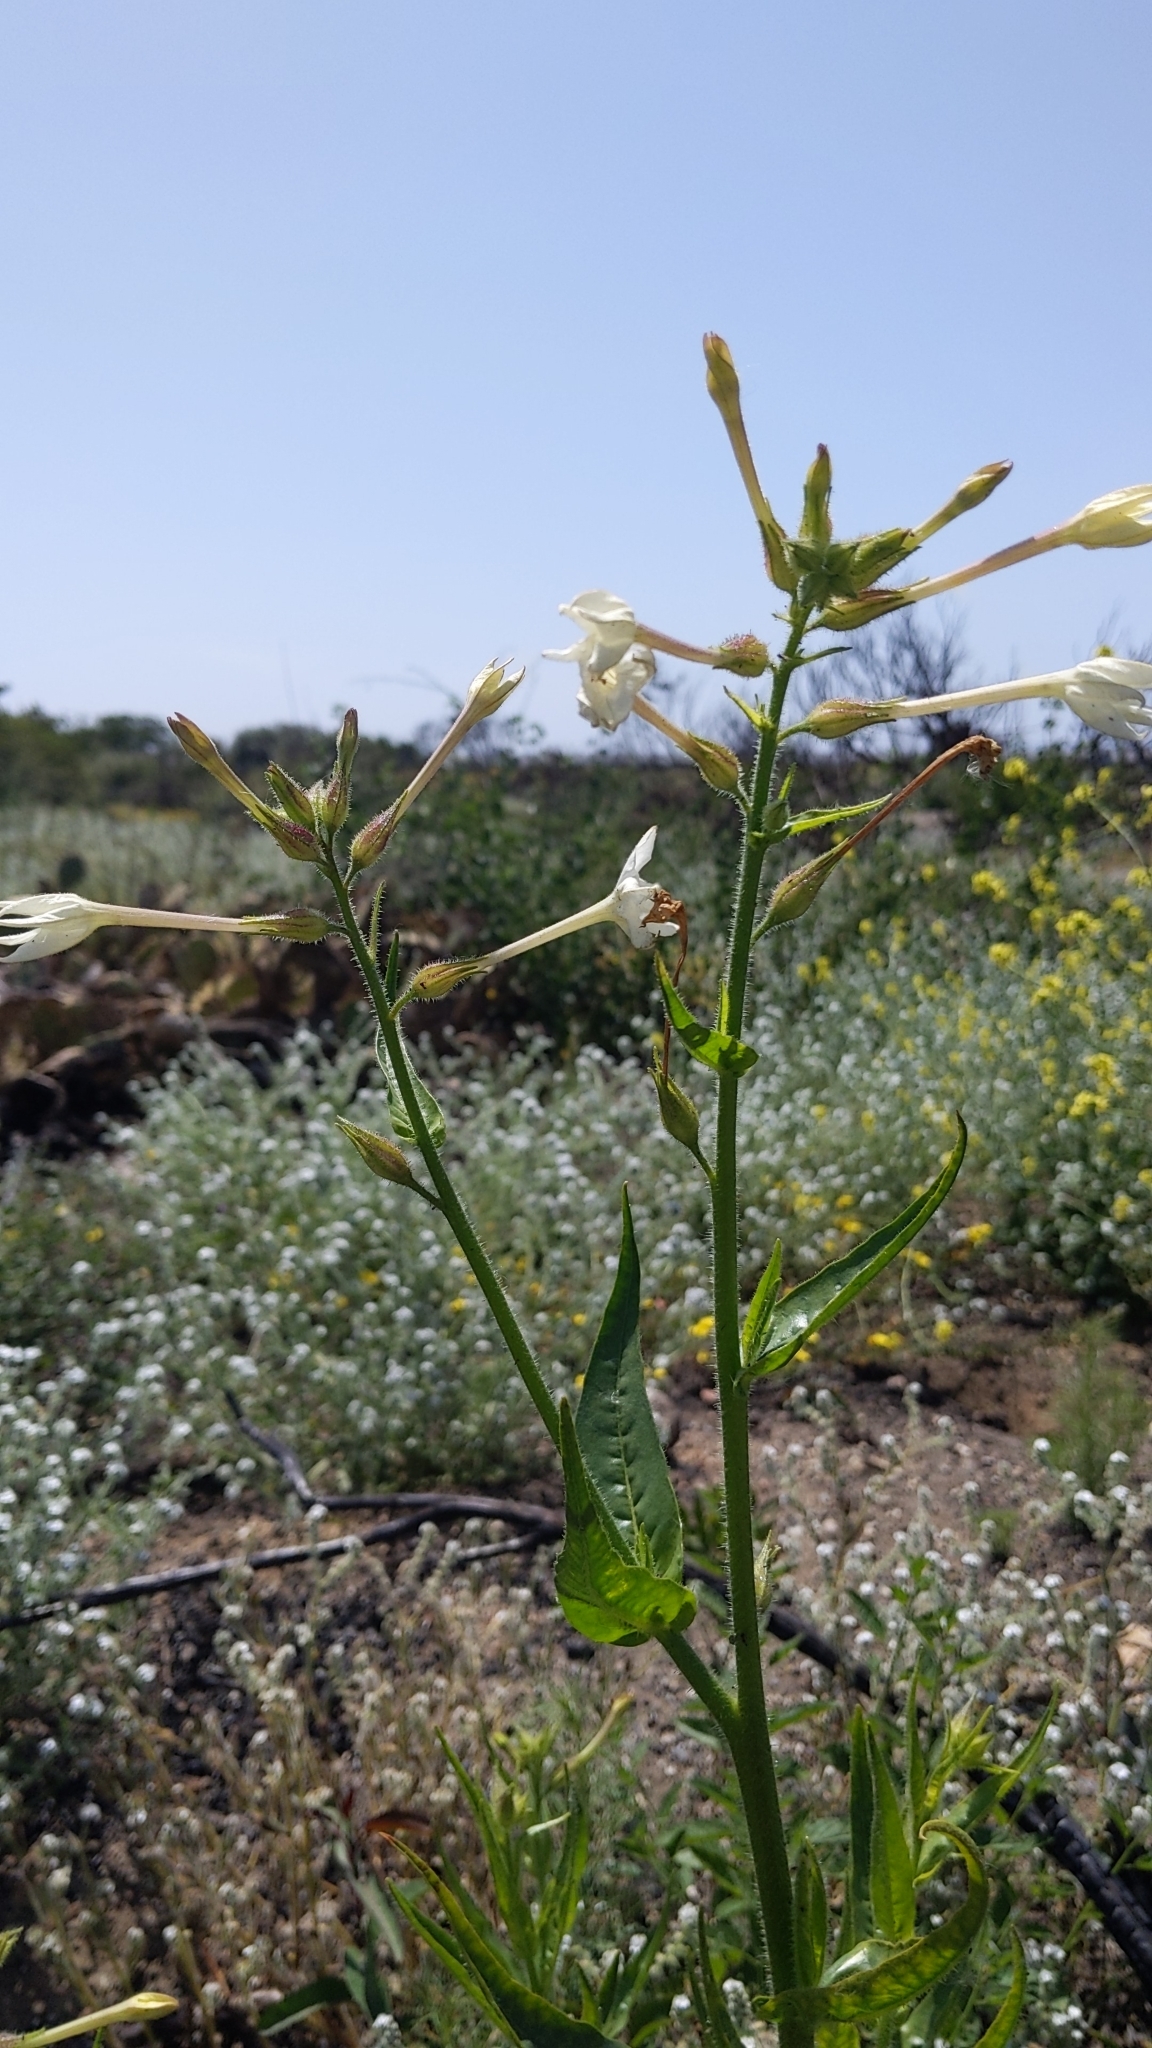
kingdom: Plantae
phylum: Tracheophyta
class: Magnoliopsida
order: Solanales
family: Solanaceae
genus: Nicotiana
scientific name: Nicotiana quadrivalvis
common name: Indian tobacco
